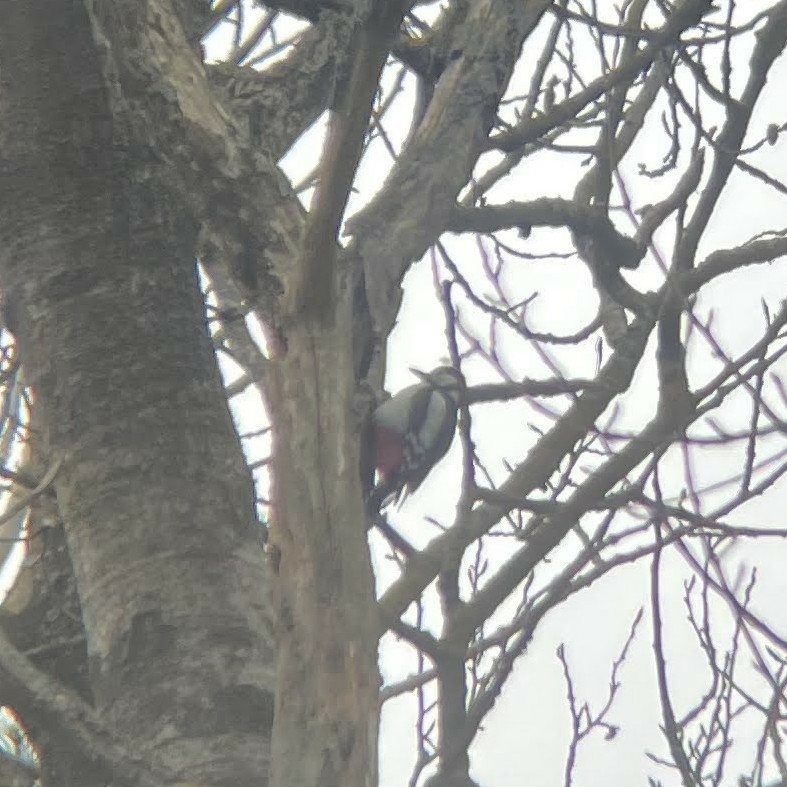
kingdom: Animalia
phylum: Chordata
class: Aves
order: Piciformes
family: Picidae
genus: Dendrocopos
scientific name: Dendrocopos major
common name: Great spotted woodpecker
